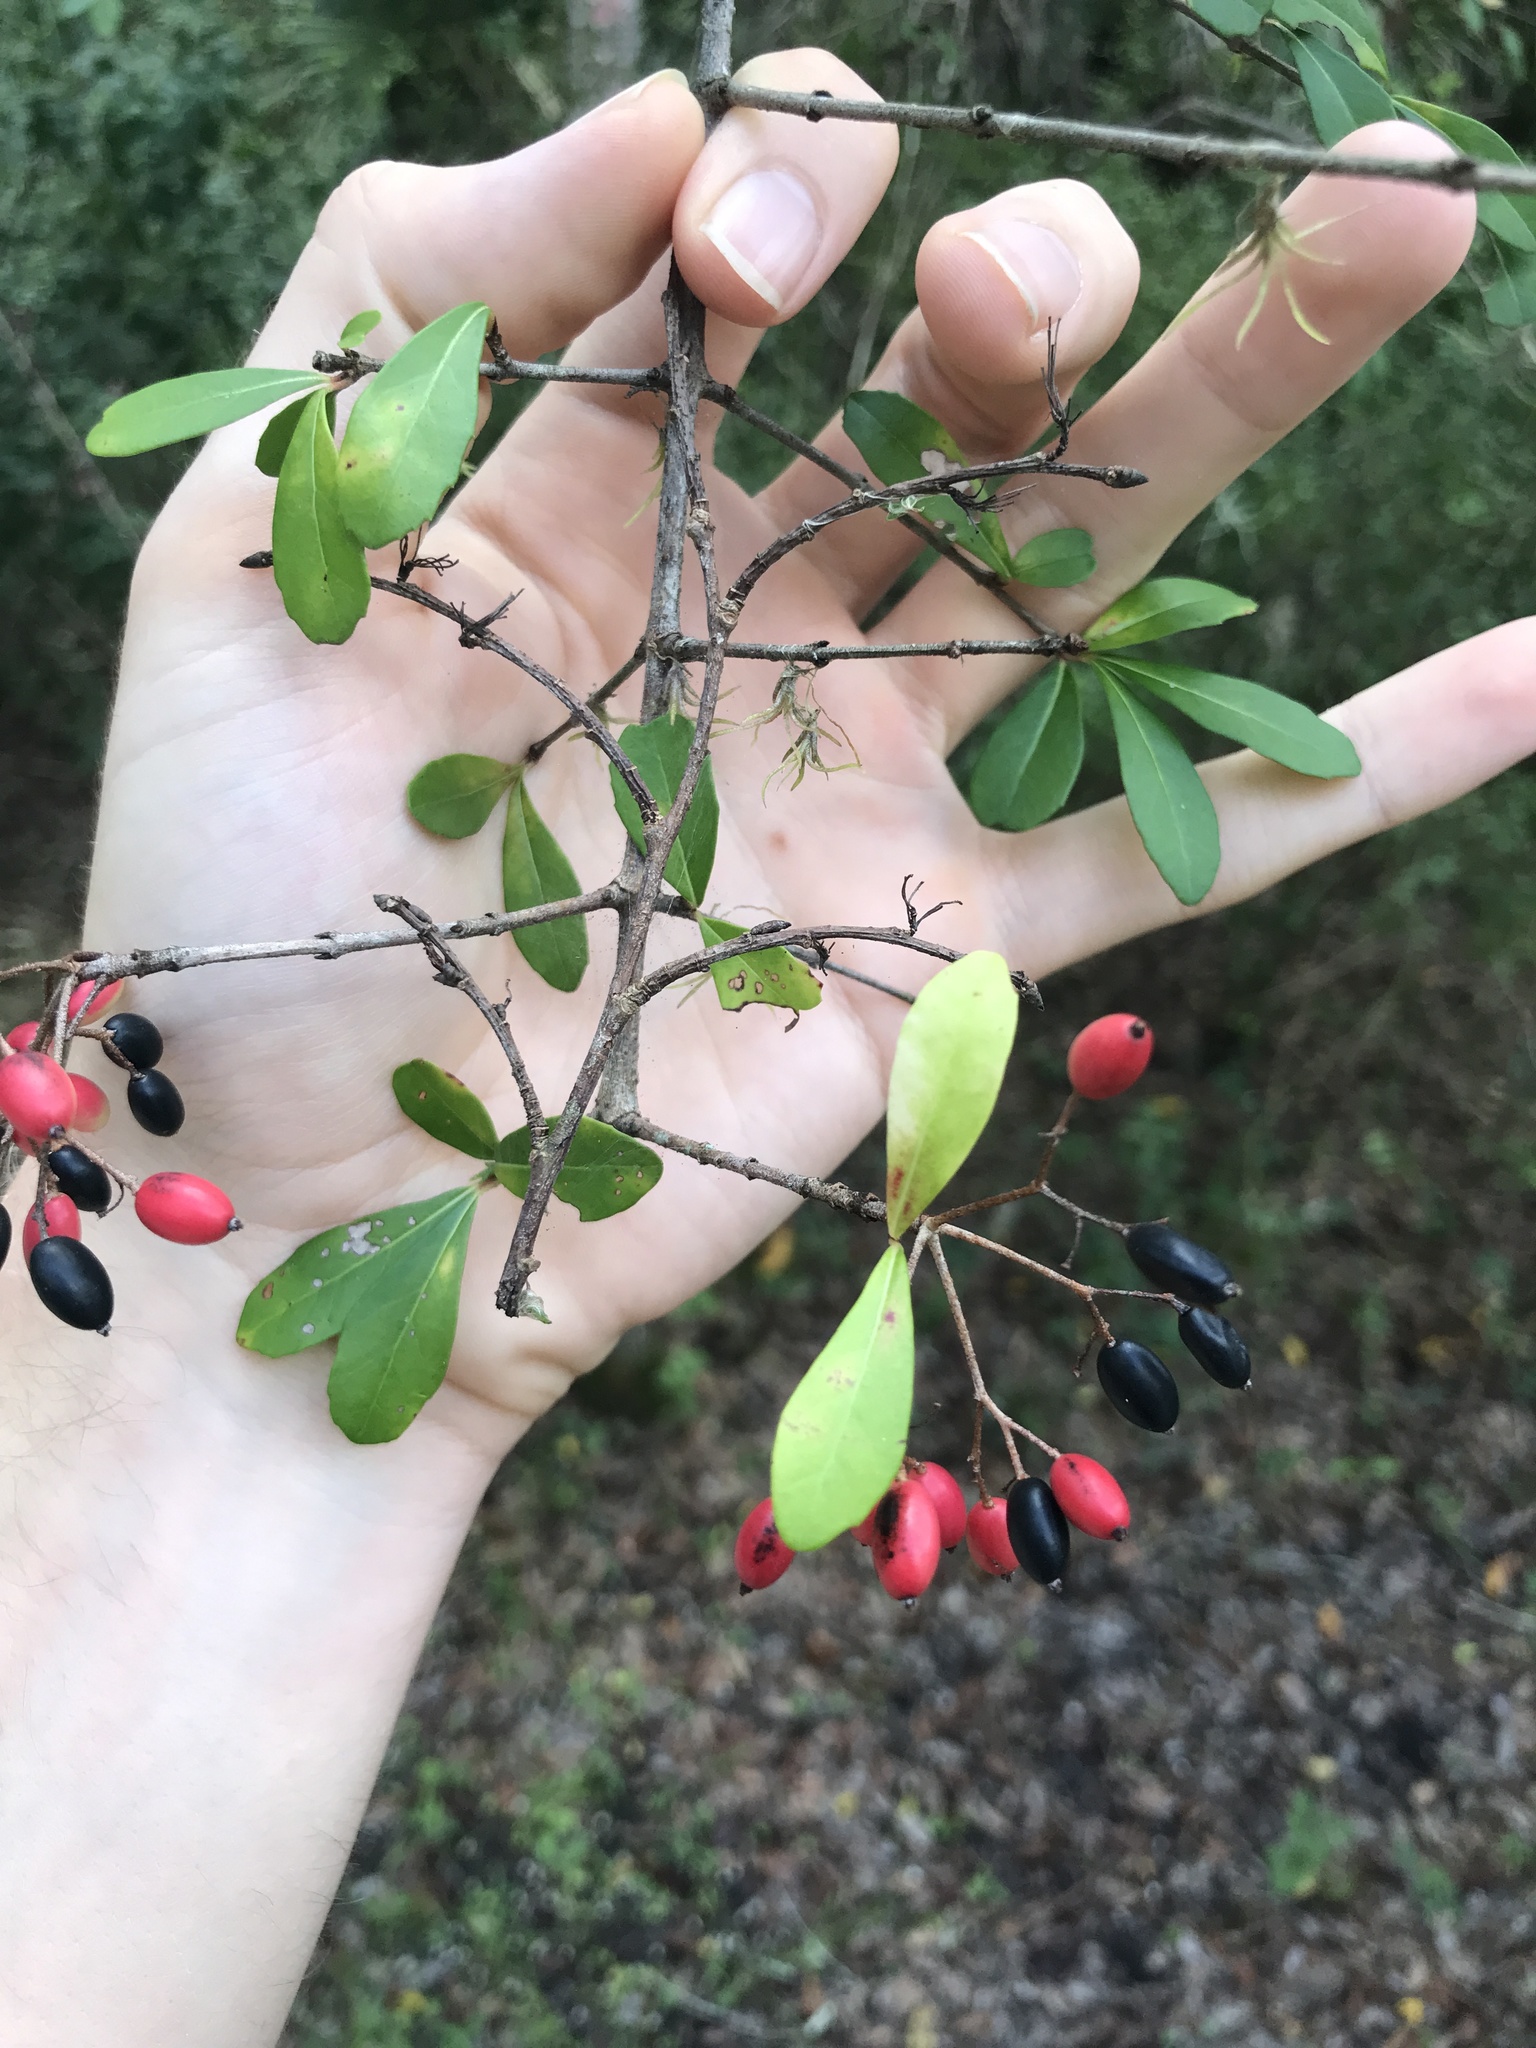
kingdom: Plantae
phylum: Tracheophyta
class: Magnoliopsida
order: Dipsacales
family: Viburnaceae
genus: Viburnum
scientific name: Viburnum obovatum
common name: Walter's viburnum
